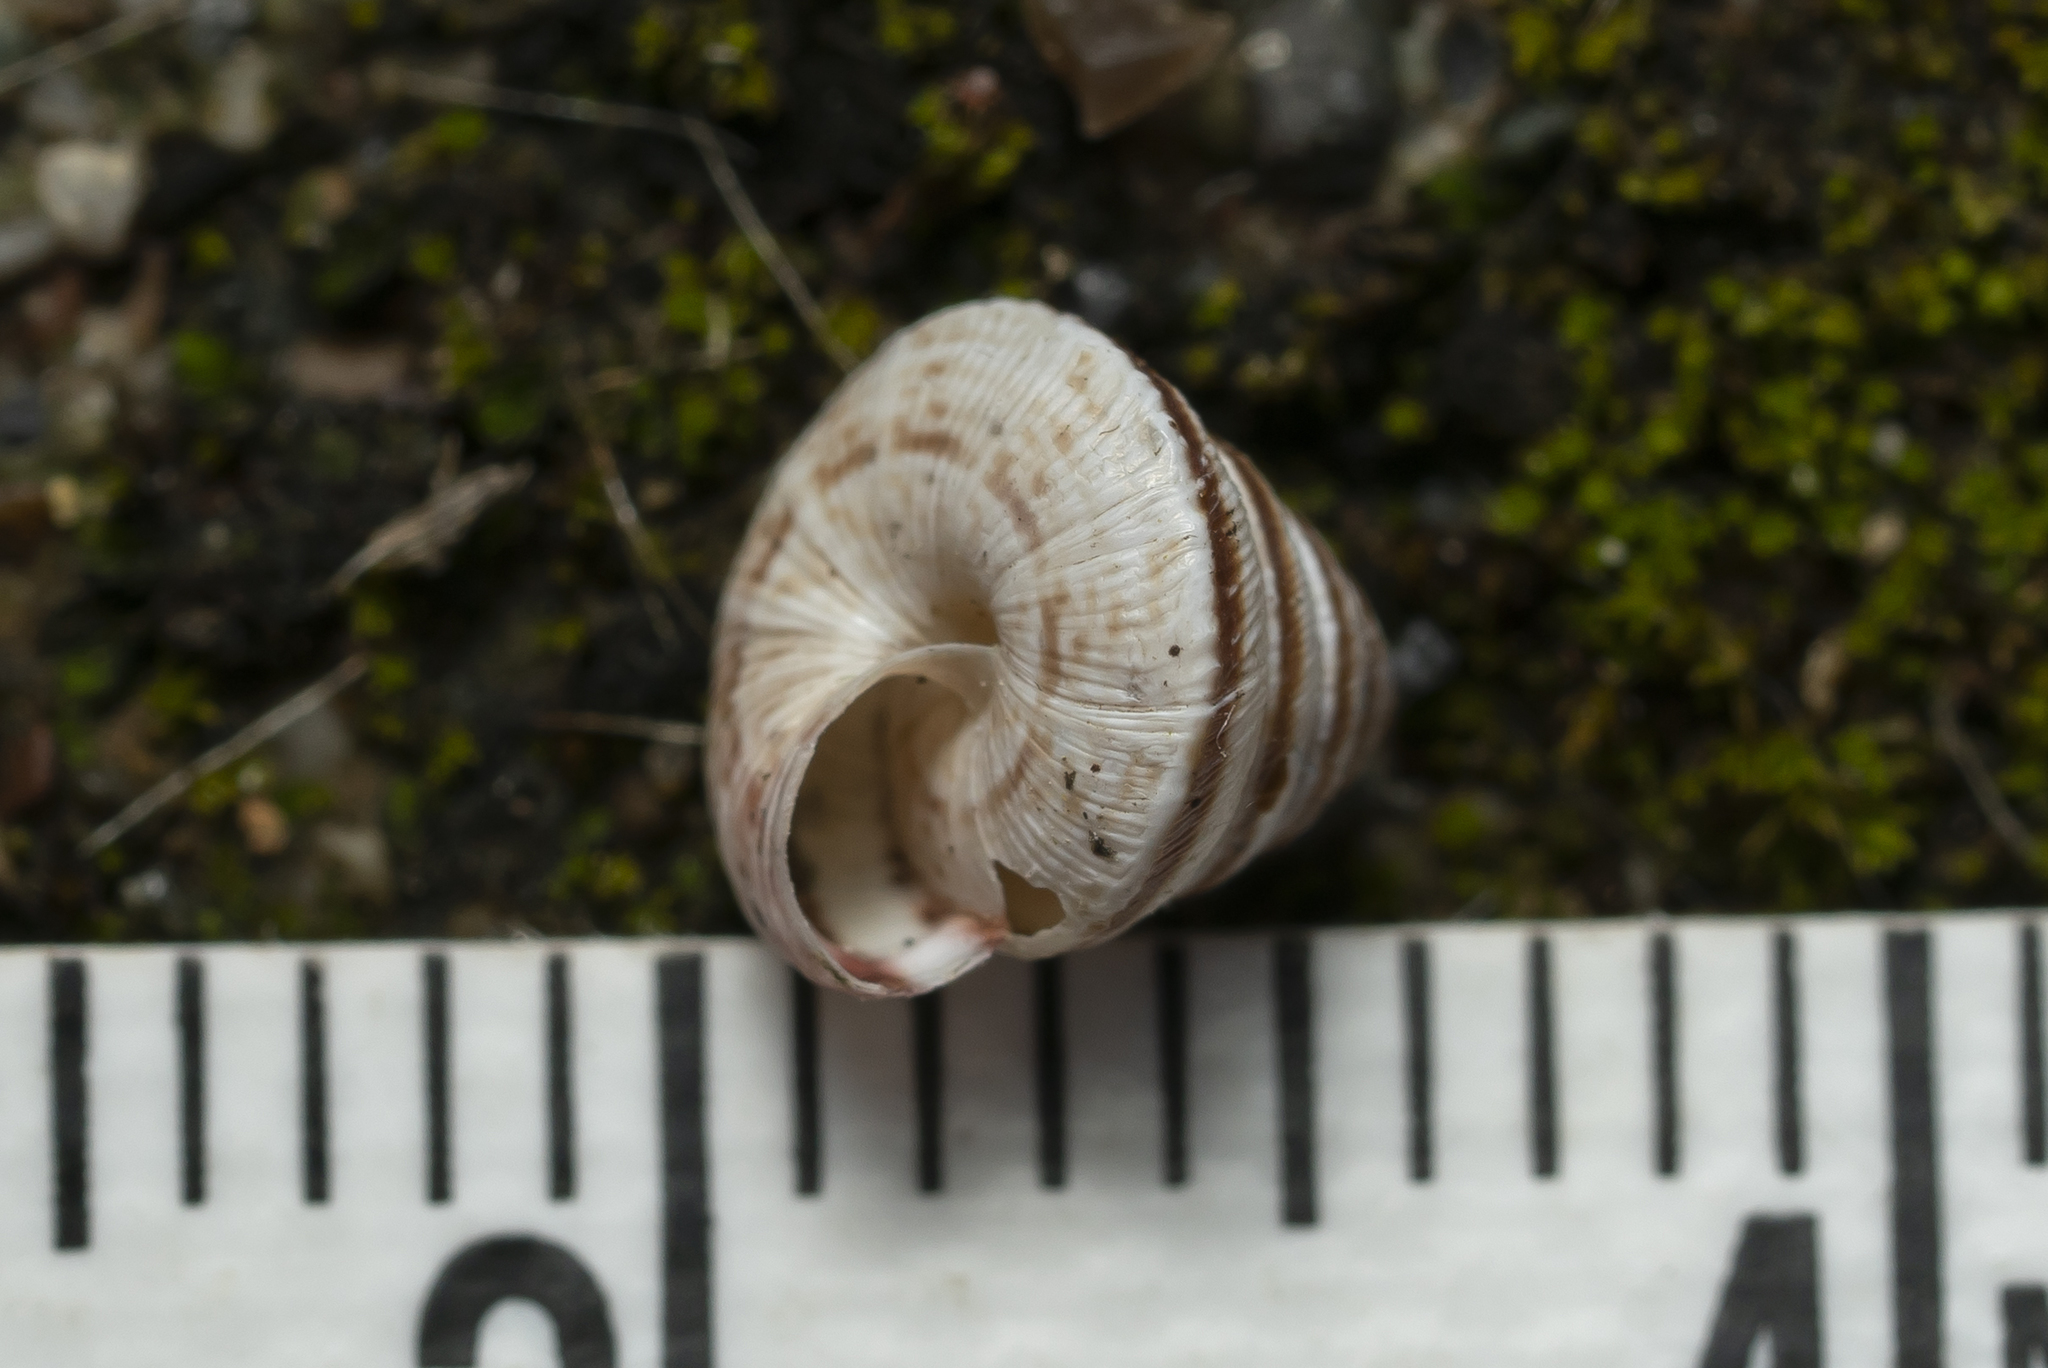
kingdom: Animalia
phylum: Mollusca
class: Gastropoda
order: Stylommatophora
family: Geomitridae
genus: Trochoidea
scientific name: Trochoidea trochoides
